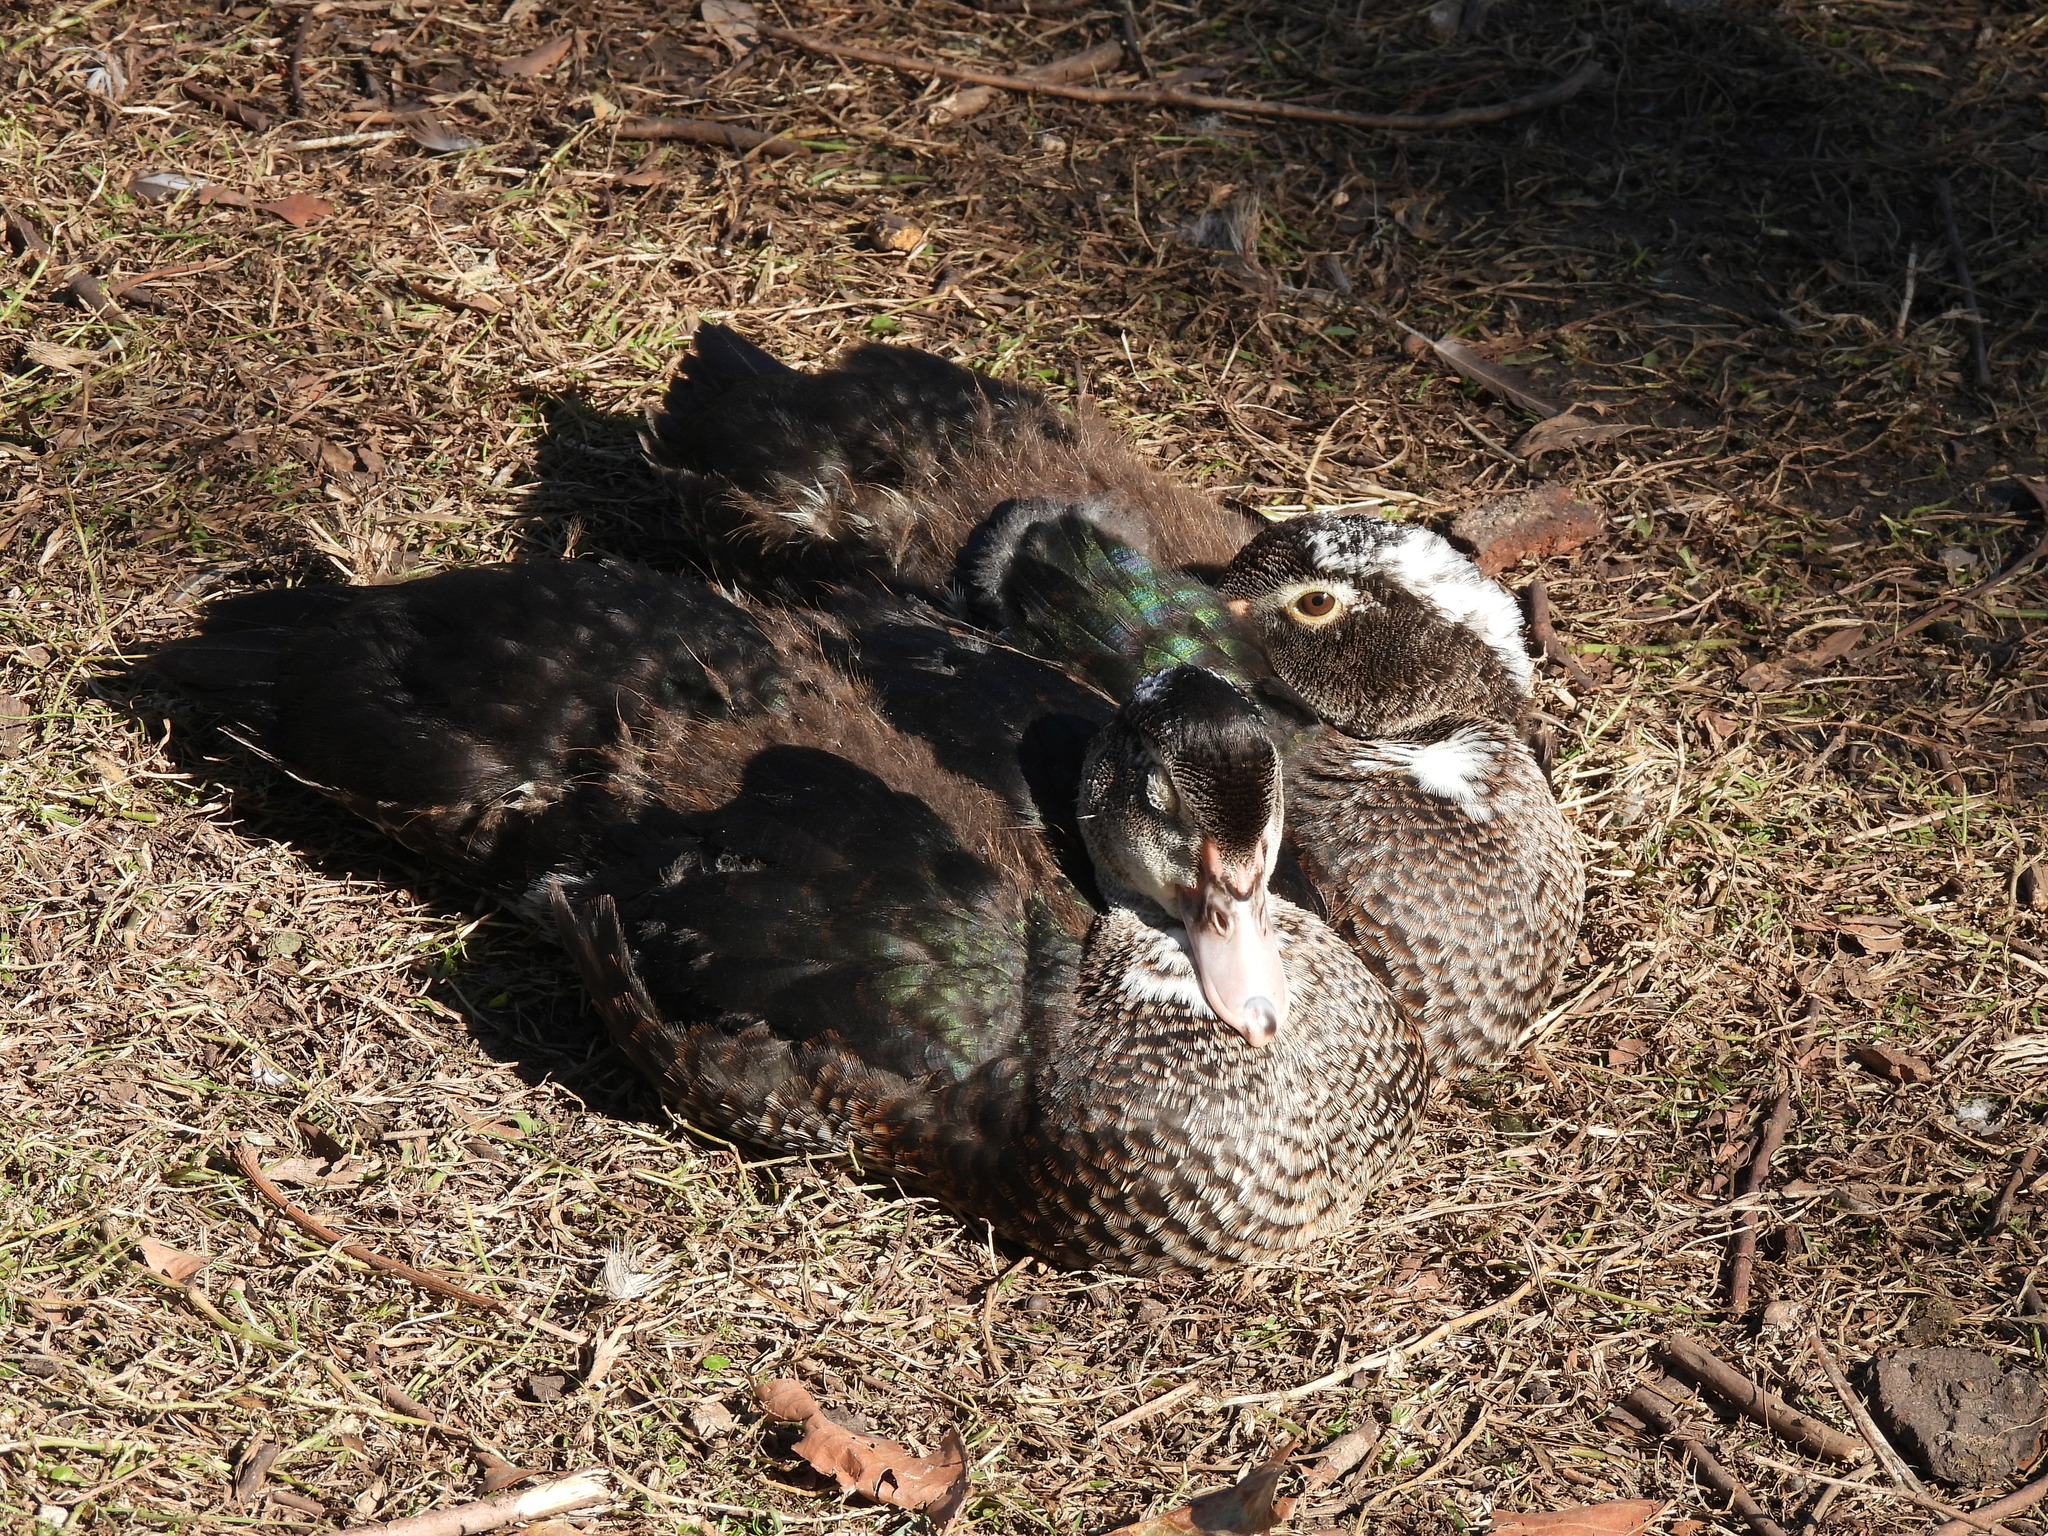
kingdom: Animalia
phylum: Chordata
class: Aves
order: Anseriformes
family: Anatidae
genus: Cairina
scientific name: Cairina moschata
